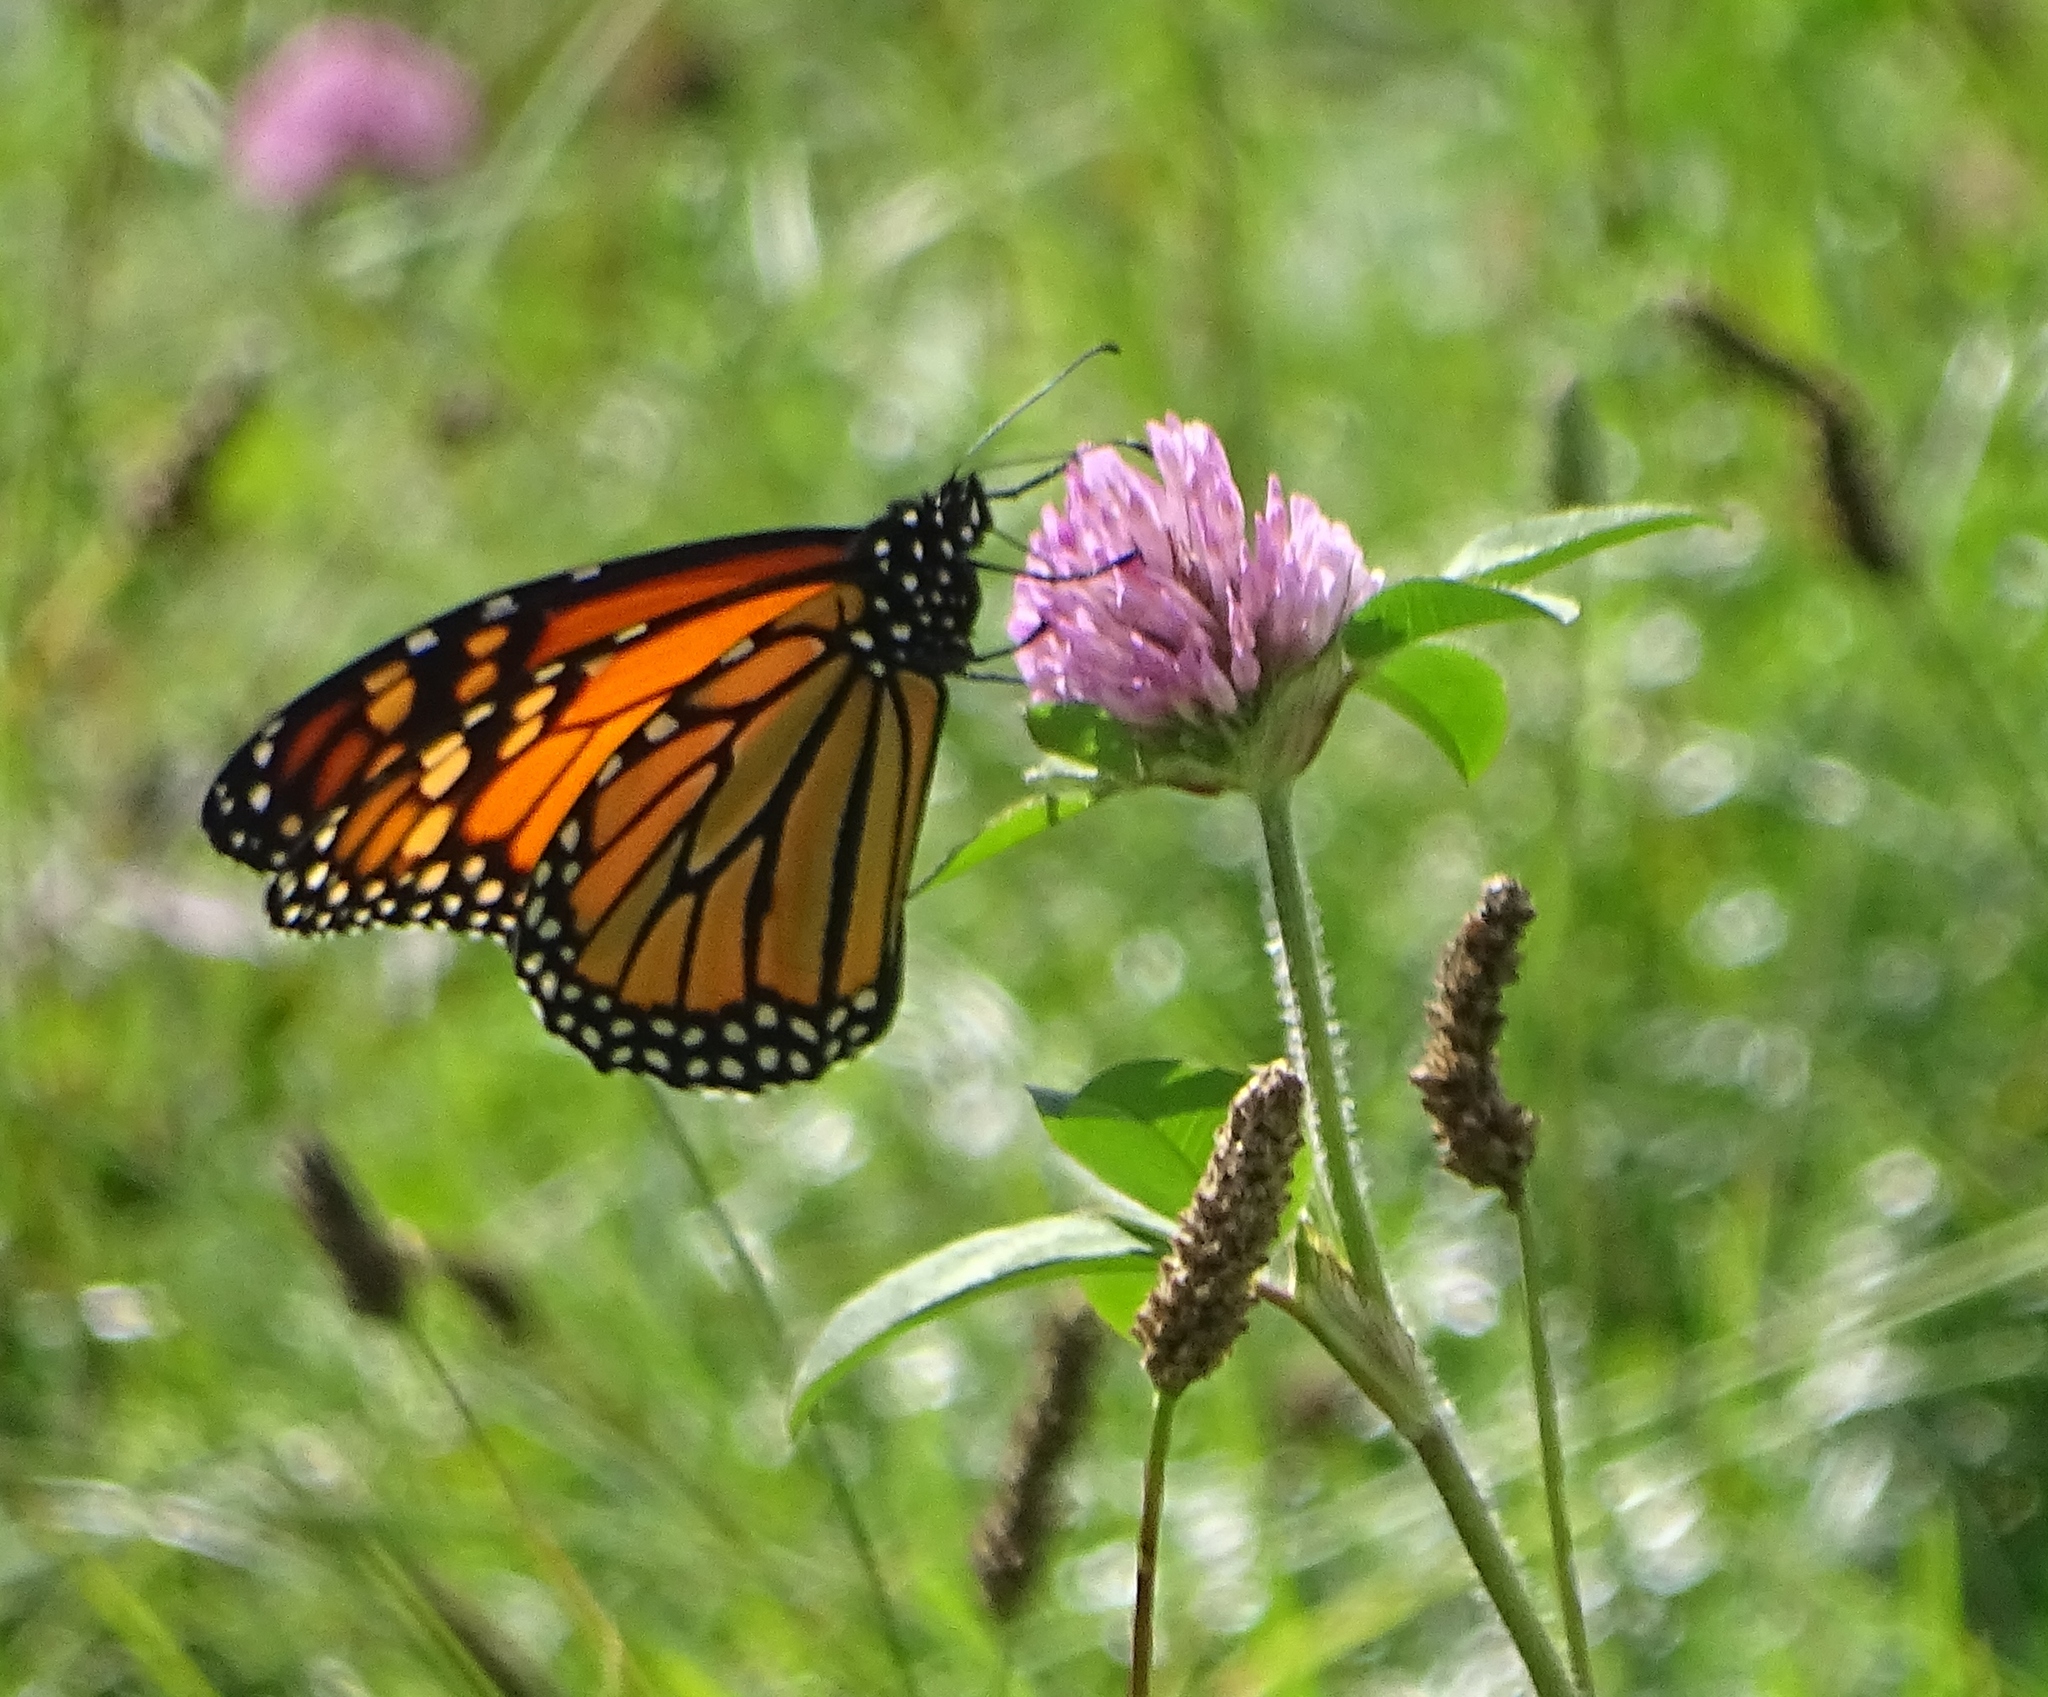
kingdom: Animalia
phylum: Arthropoda
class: Insecta
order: Lepidoptera
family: Nymphalidae
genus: Danaus
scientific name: Danaus plexippus
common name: Monarch
